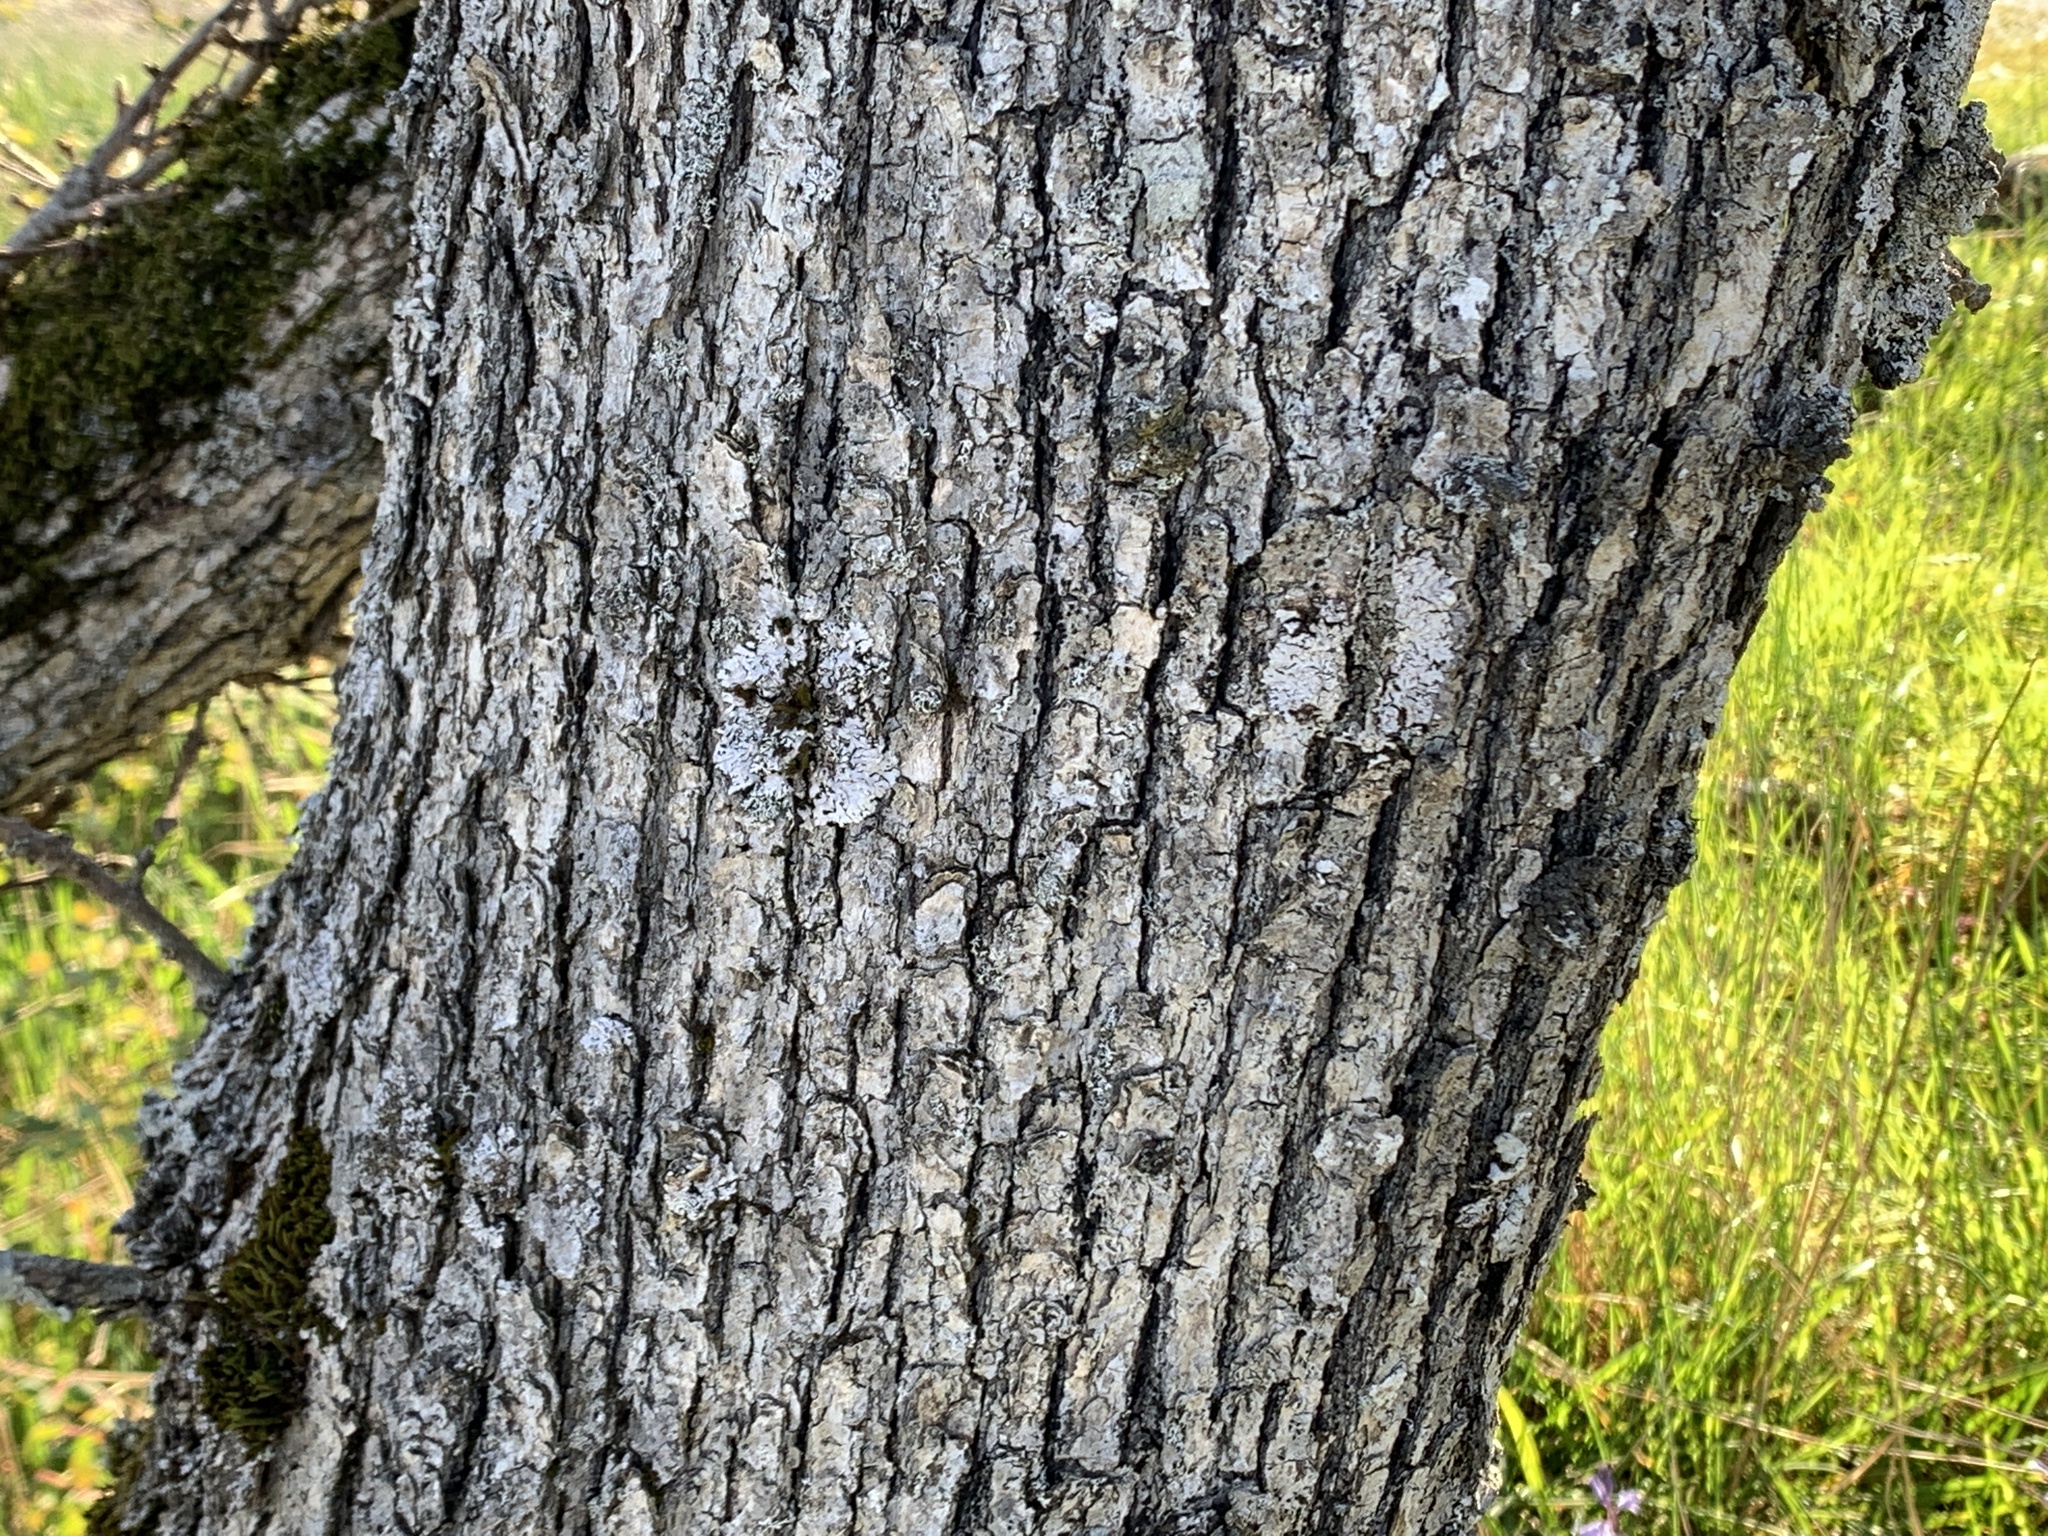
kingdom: Plantae
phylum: Tracheophyta
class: Magnoliopsida
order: Fagales
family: Fagaceae
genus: Quercus
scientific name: Quercus garryana
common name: Garry oak
